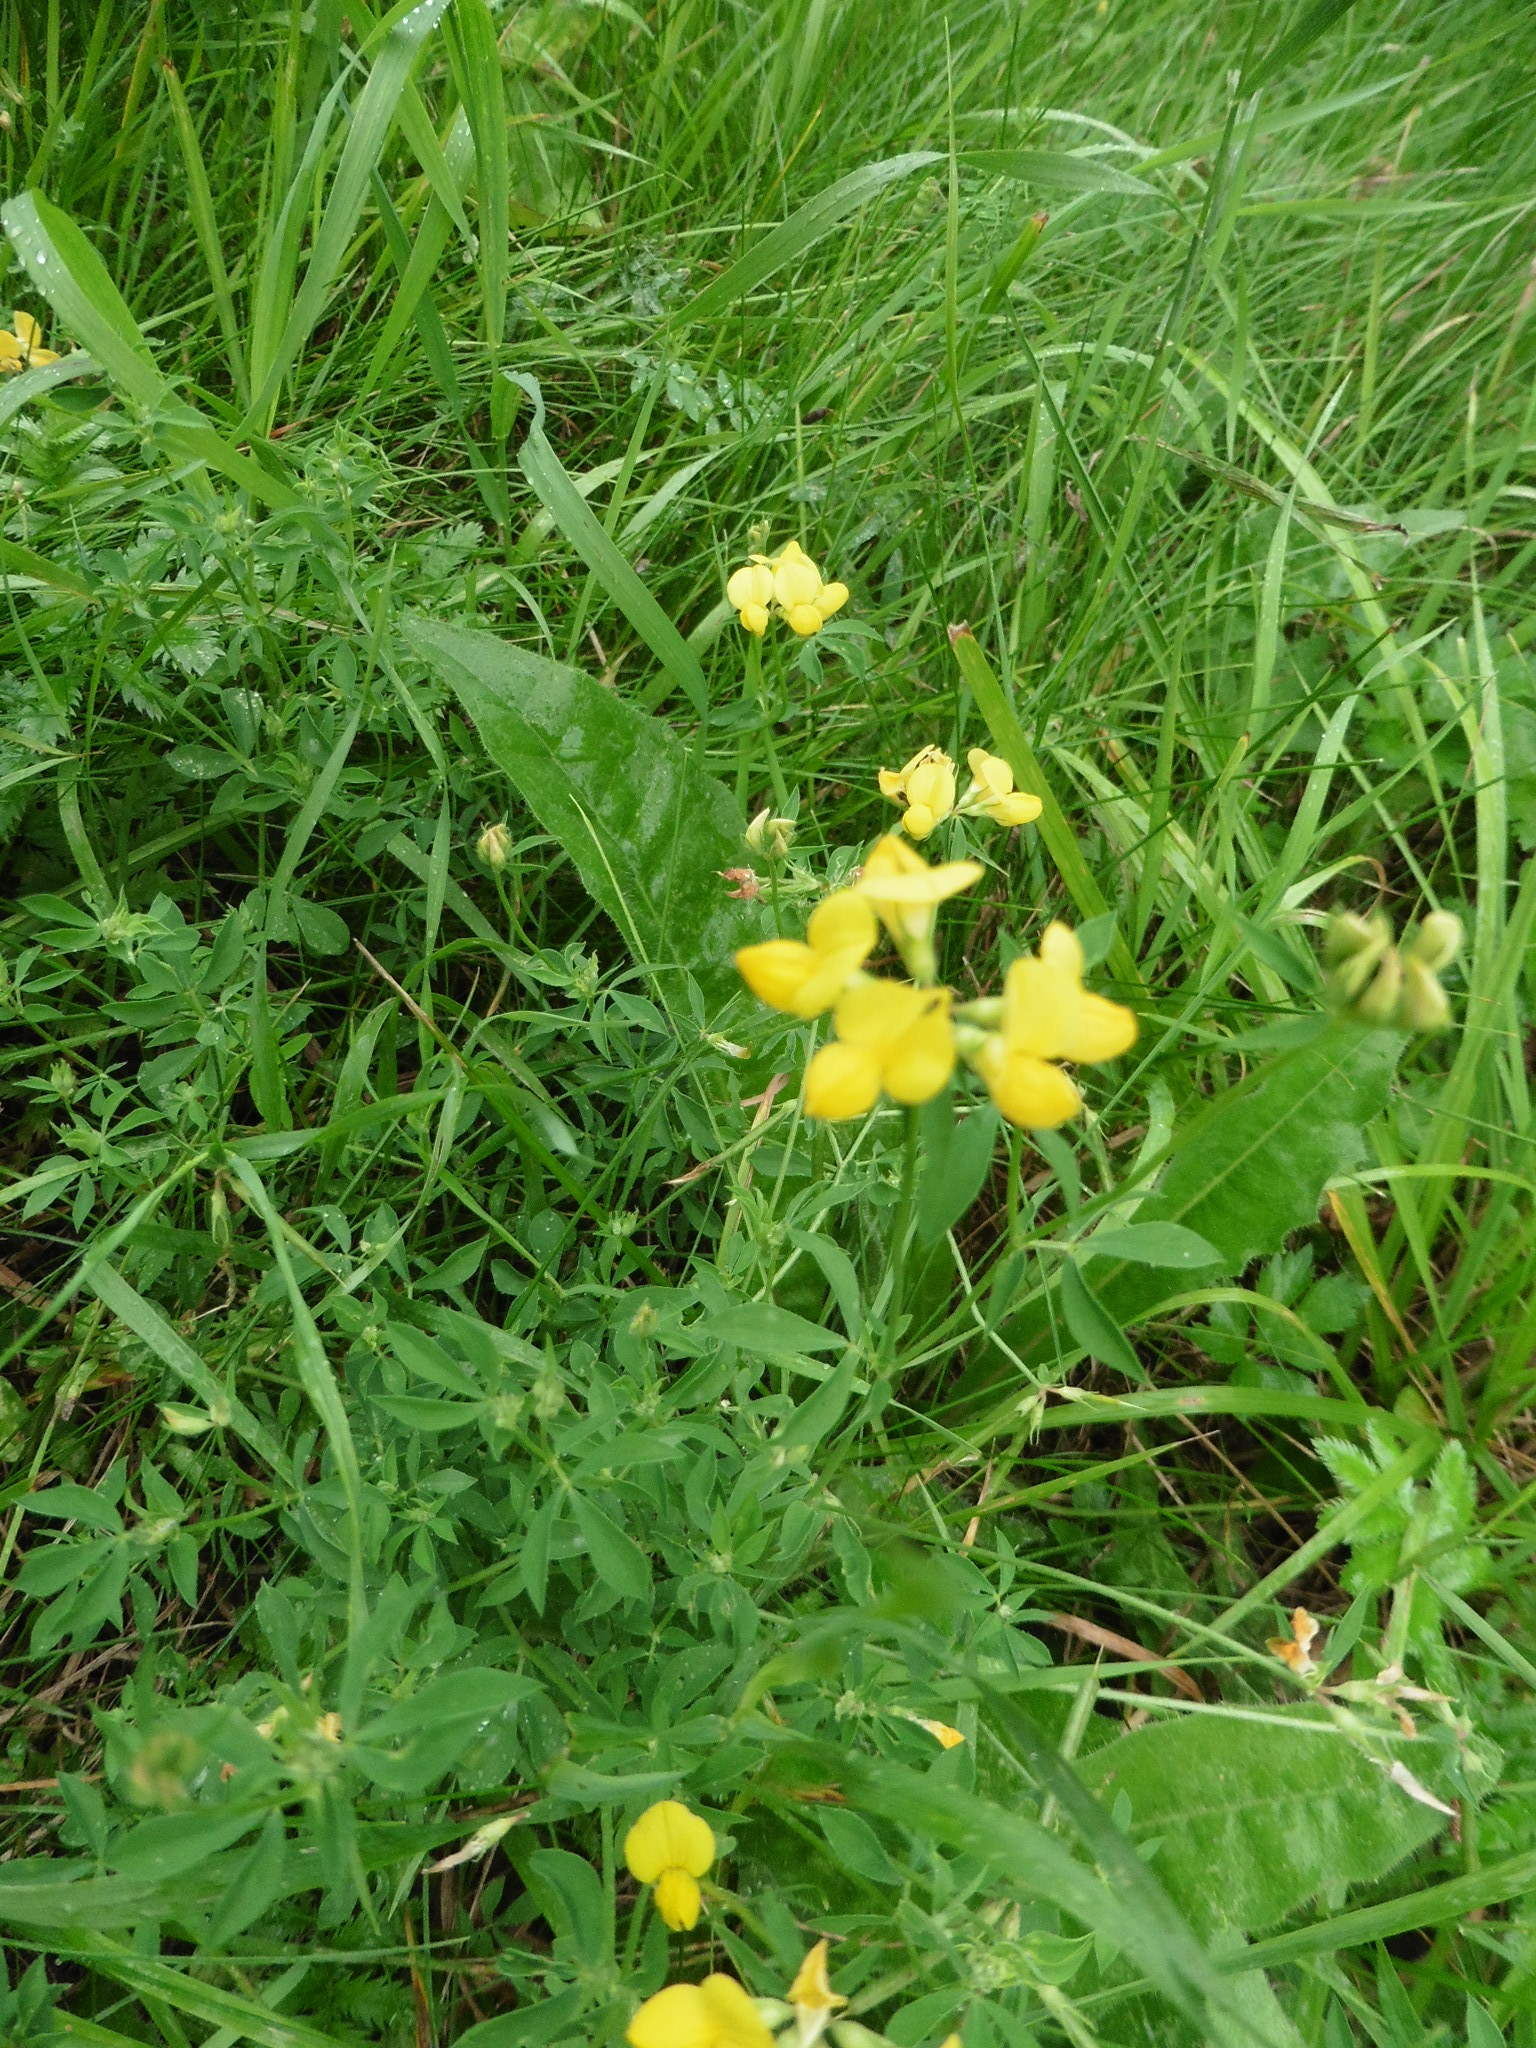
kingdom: Plantae
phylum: Tracheophyta
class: Magnoliopsida
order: Fabales
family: Fabaceae
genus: Lotus
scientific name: Lotus corniculatus
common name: Common bird's-foot-trefoil
